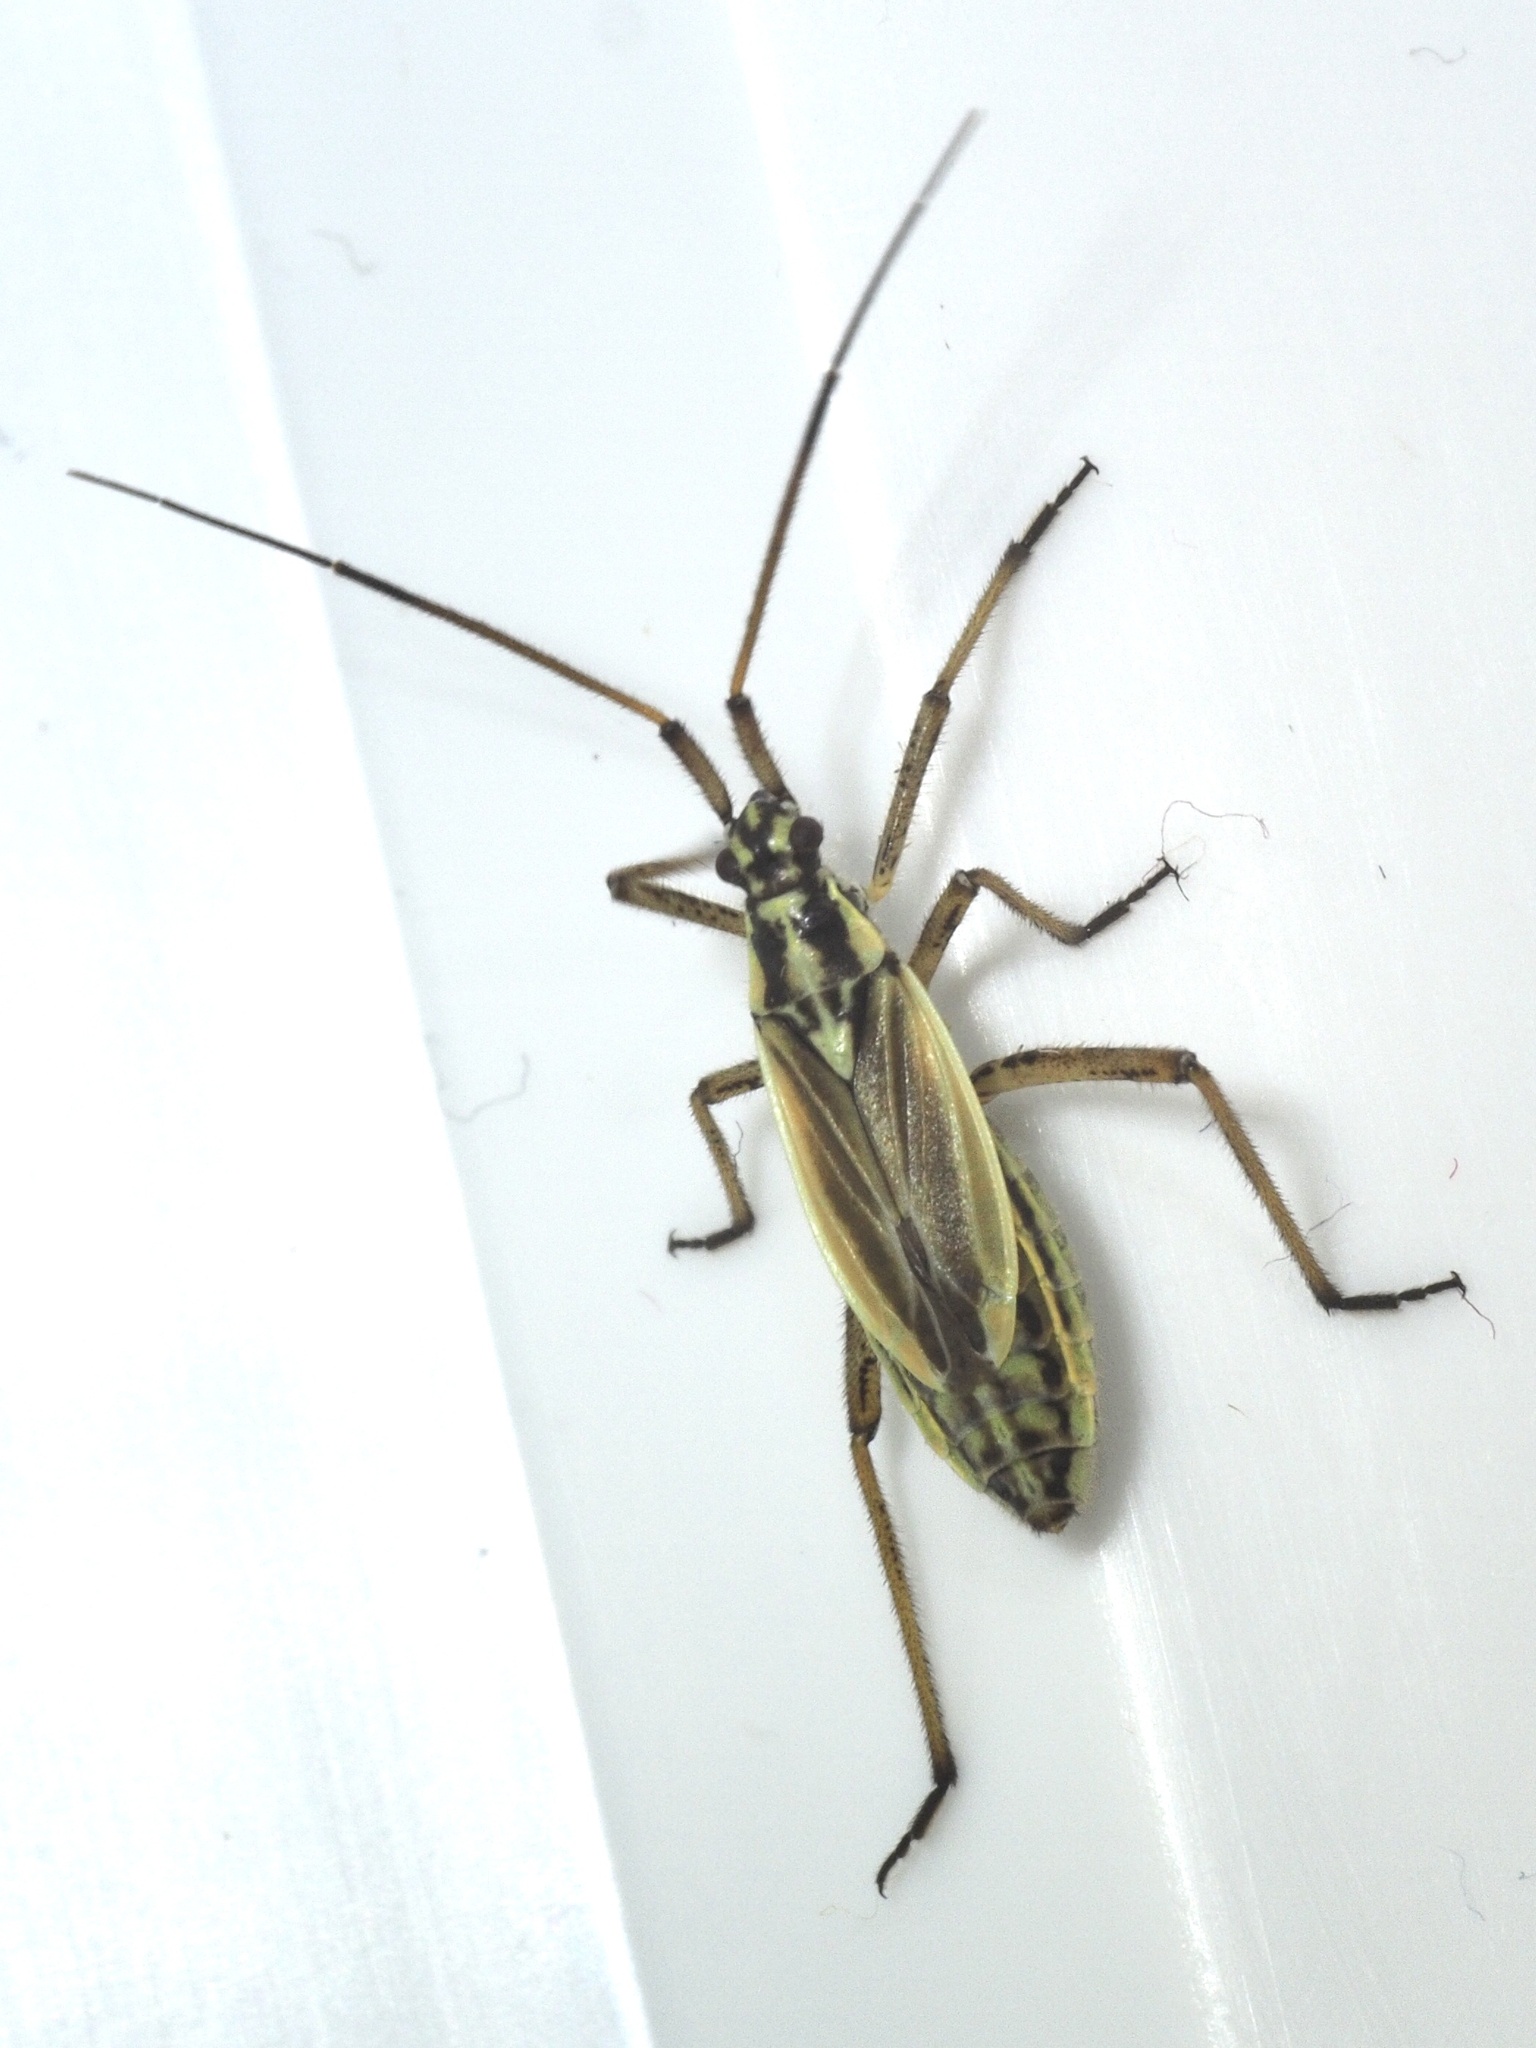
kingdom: Animalia
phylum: Arthropoda
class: Insecta
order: Hemiptera
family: Miridae
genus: Leptopterna
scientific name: Leptopterna dolabrata
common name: Meadow plant bug
